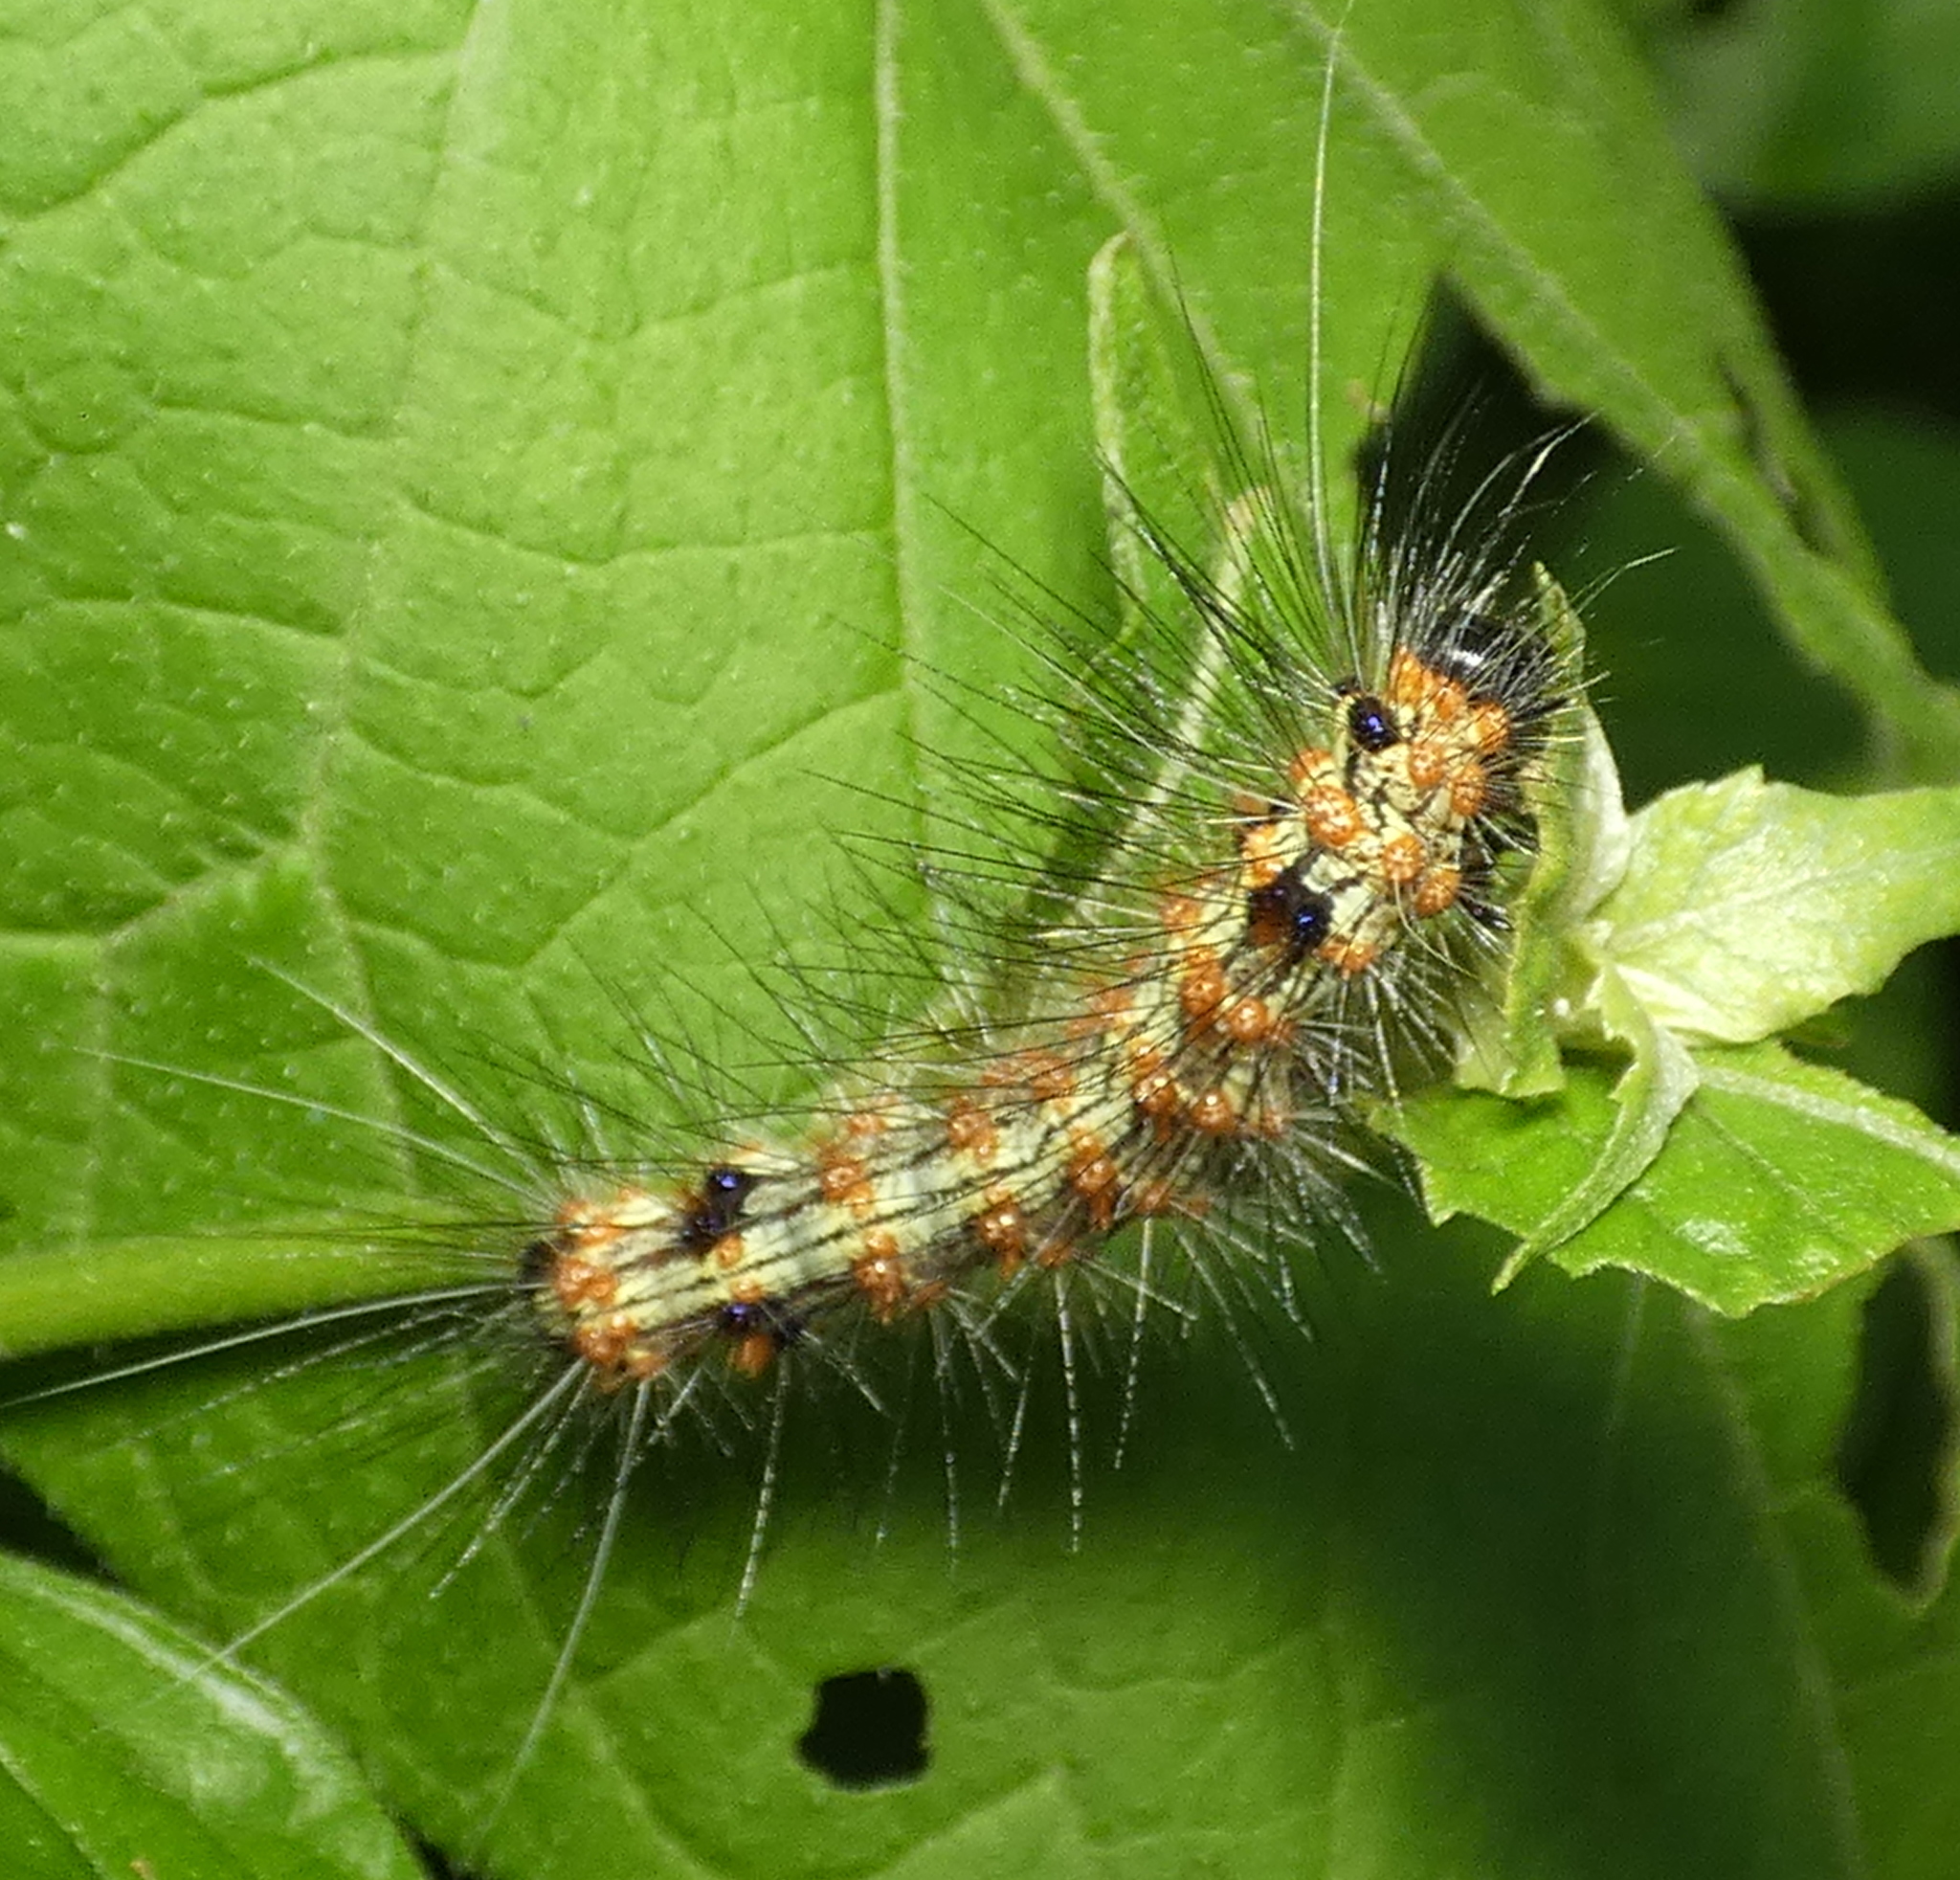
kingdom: Animalia
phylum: Arthropoda
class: Insecta
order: Lepidoptera
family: Erebidae
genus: Dysschema
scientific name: Dysschema sacrifica
